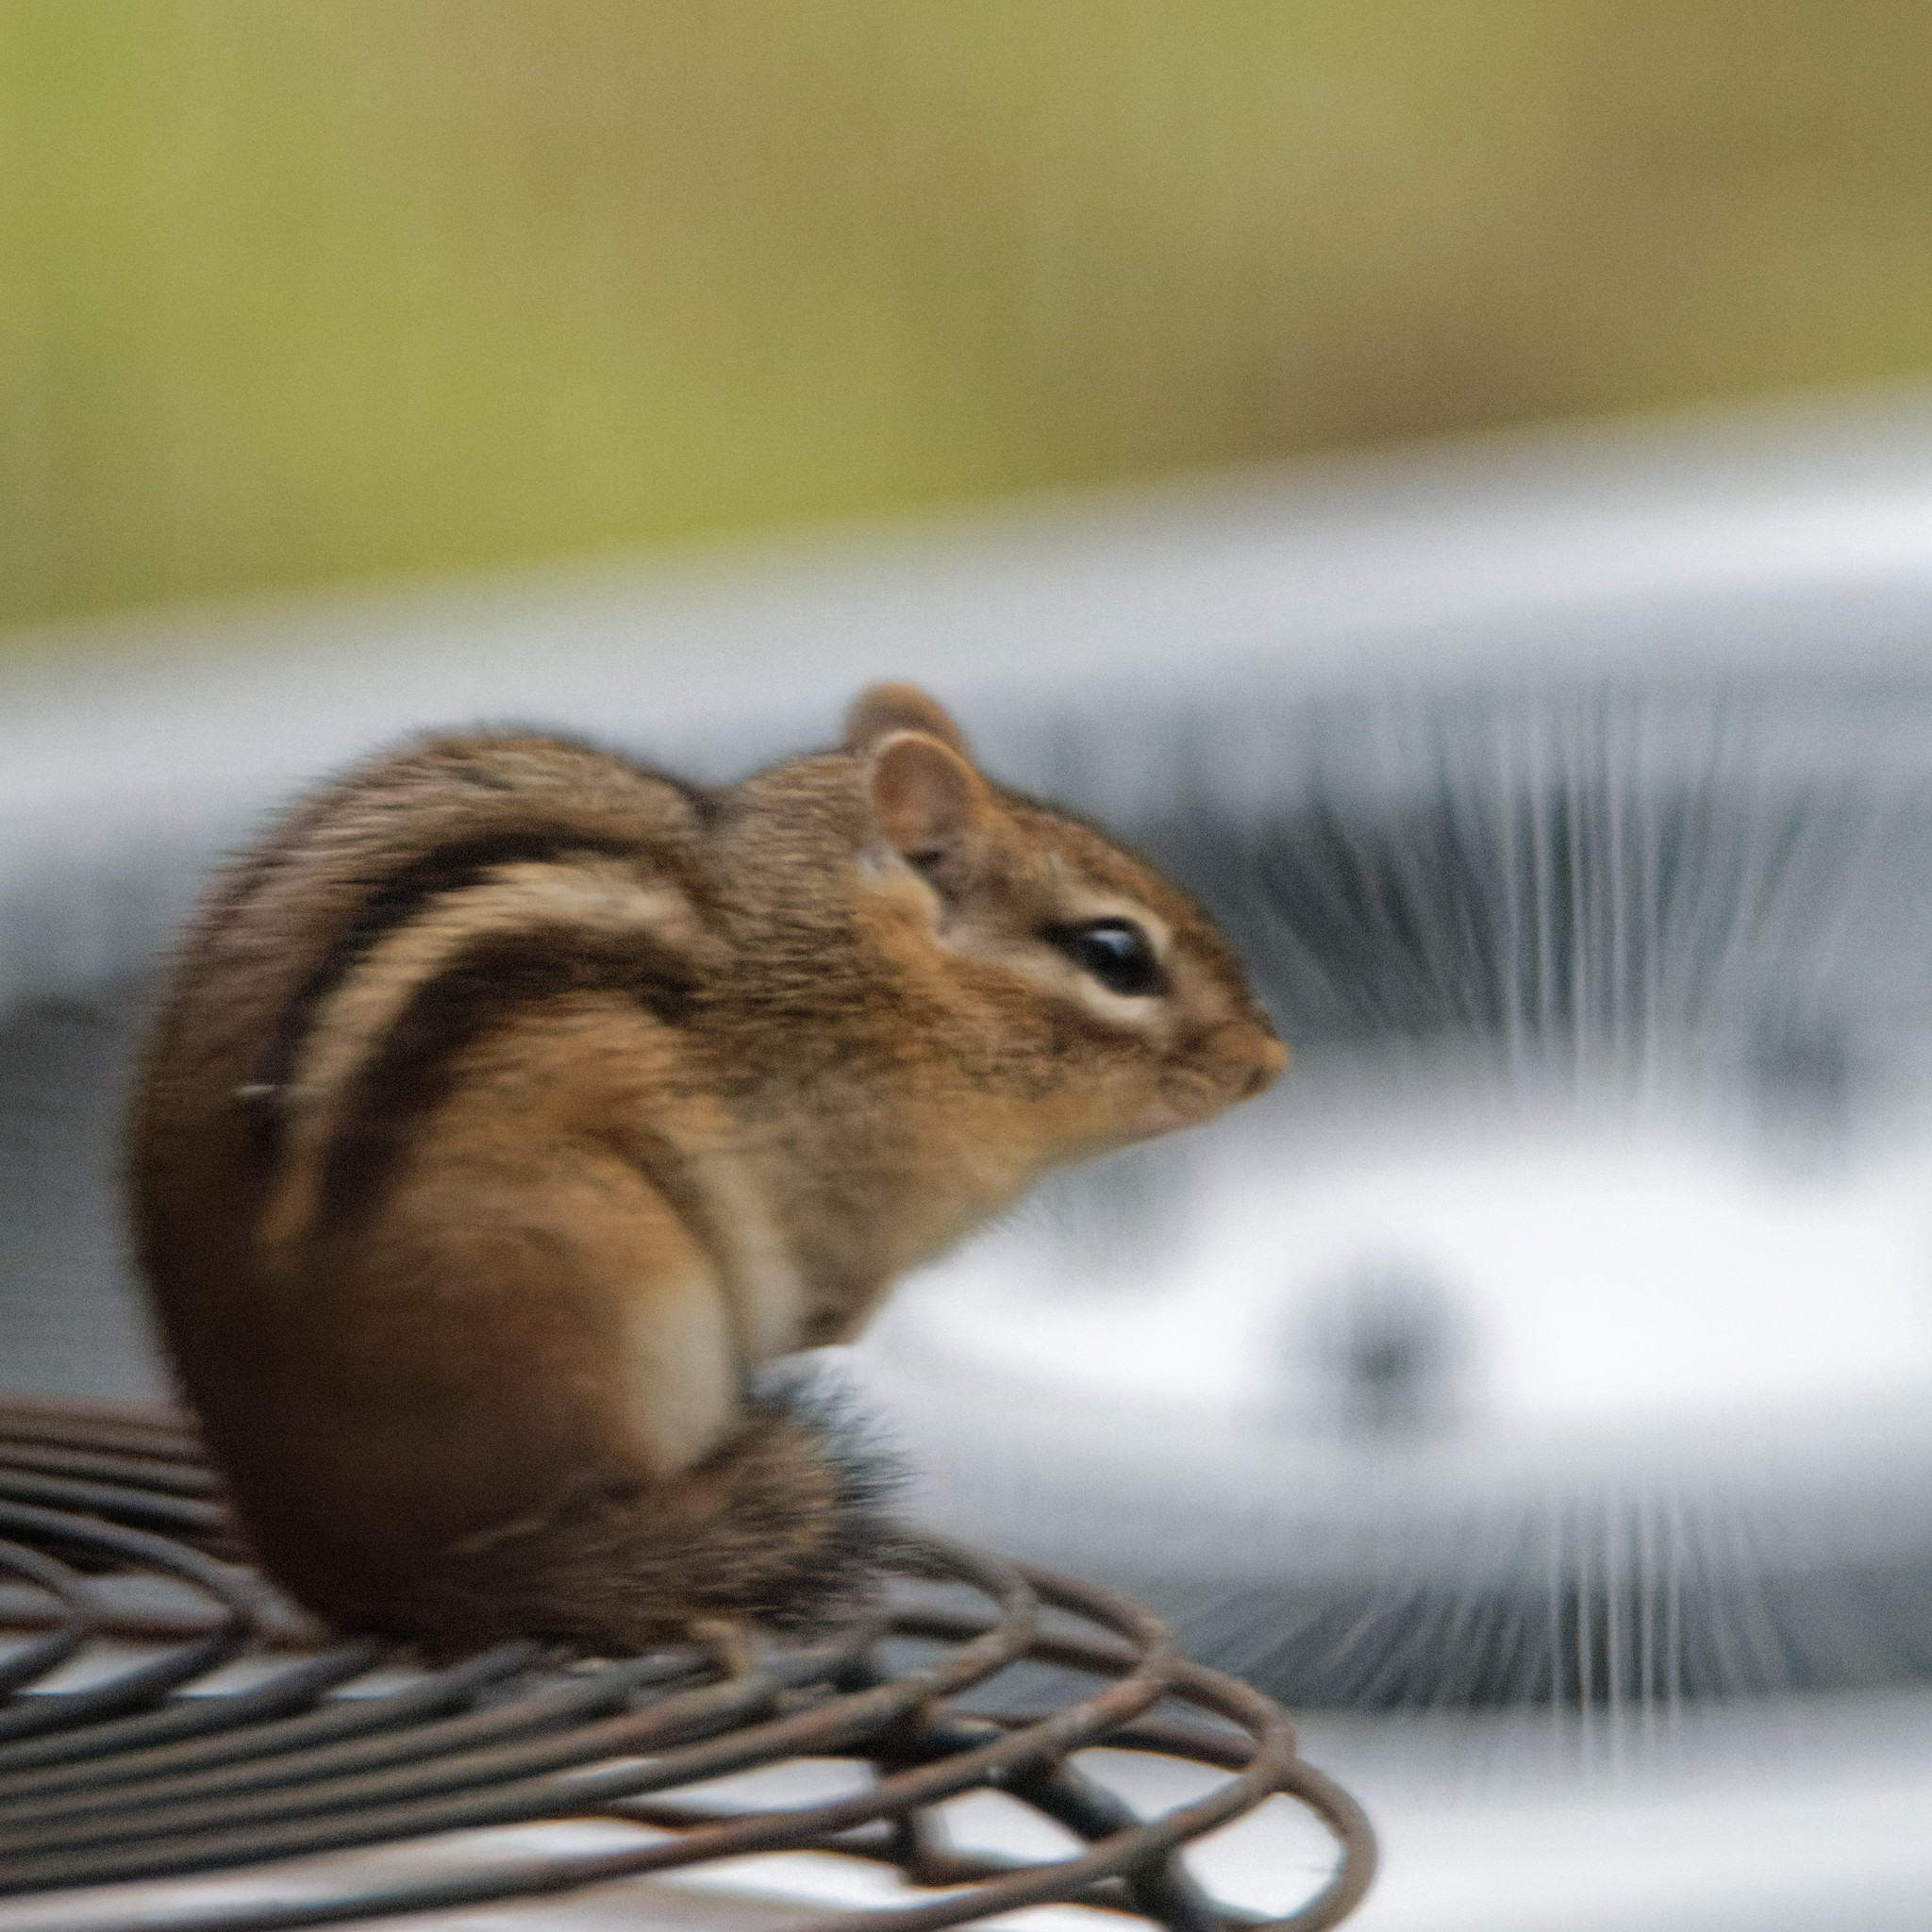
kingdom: Animalia
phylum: Chordata
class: Mammalia
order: Rodentia
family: Sciuridae
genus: Tamias
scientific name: Tamias striatus
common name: Eastern chipmunk
